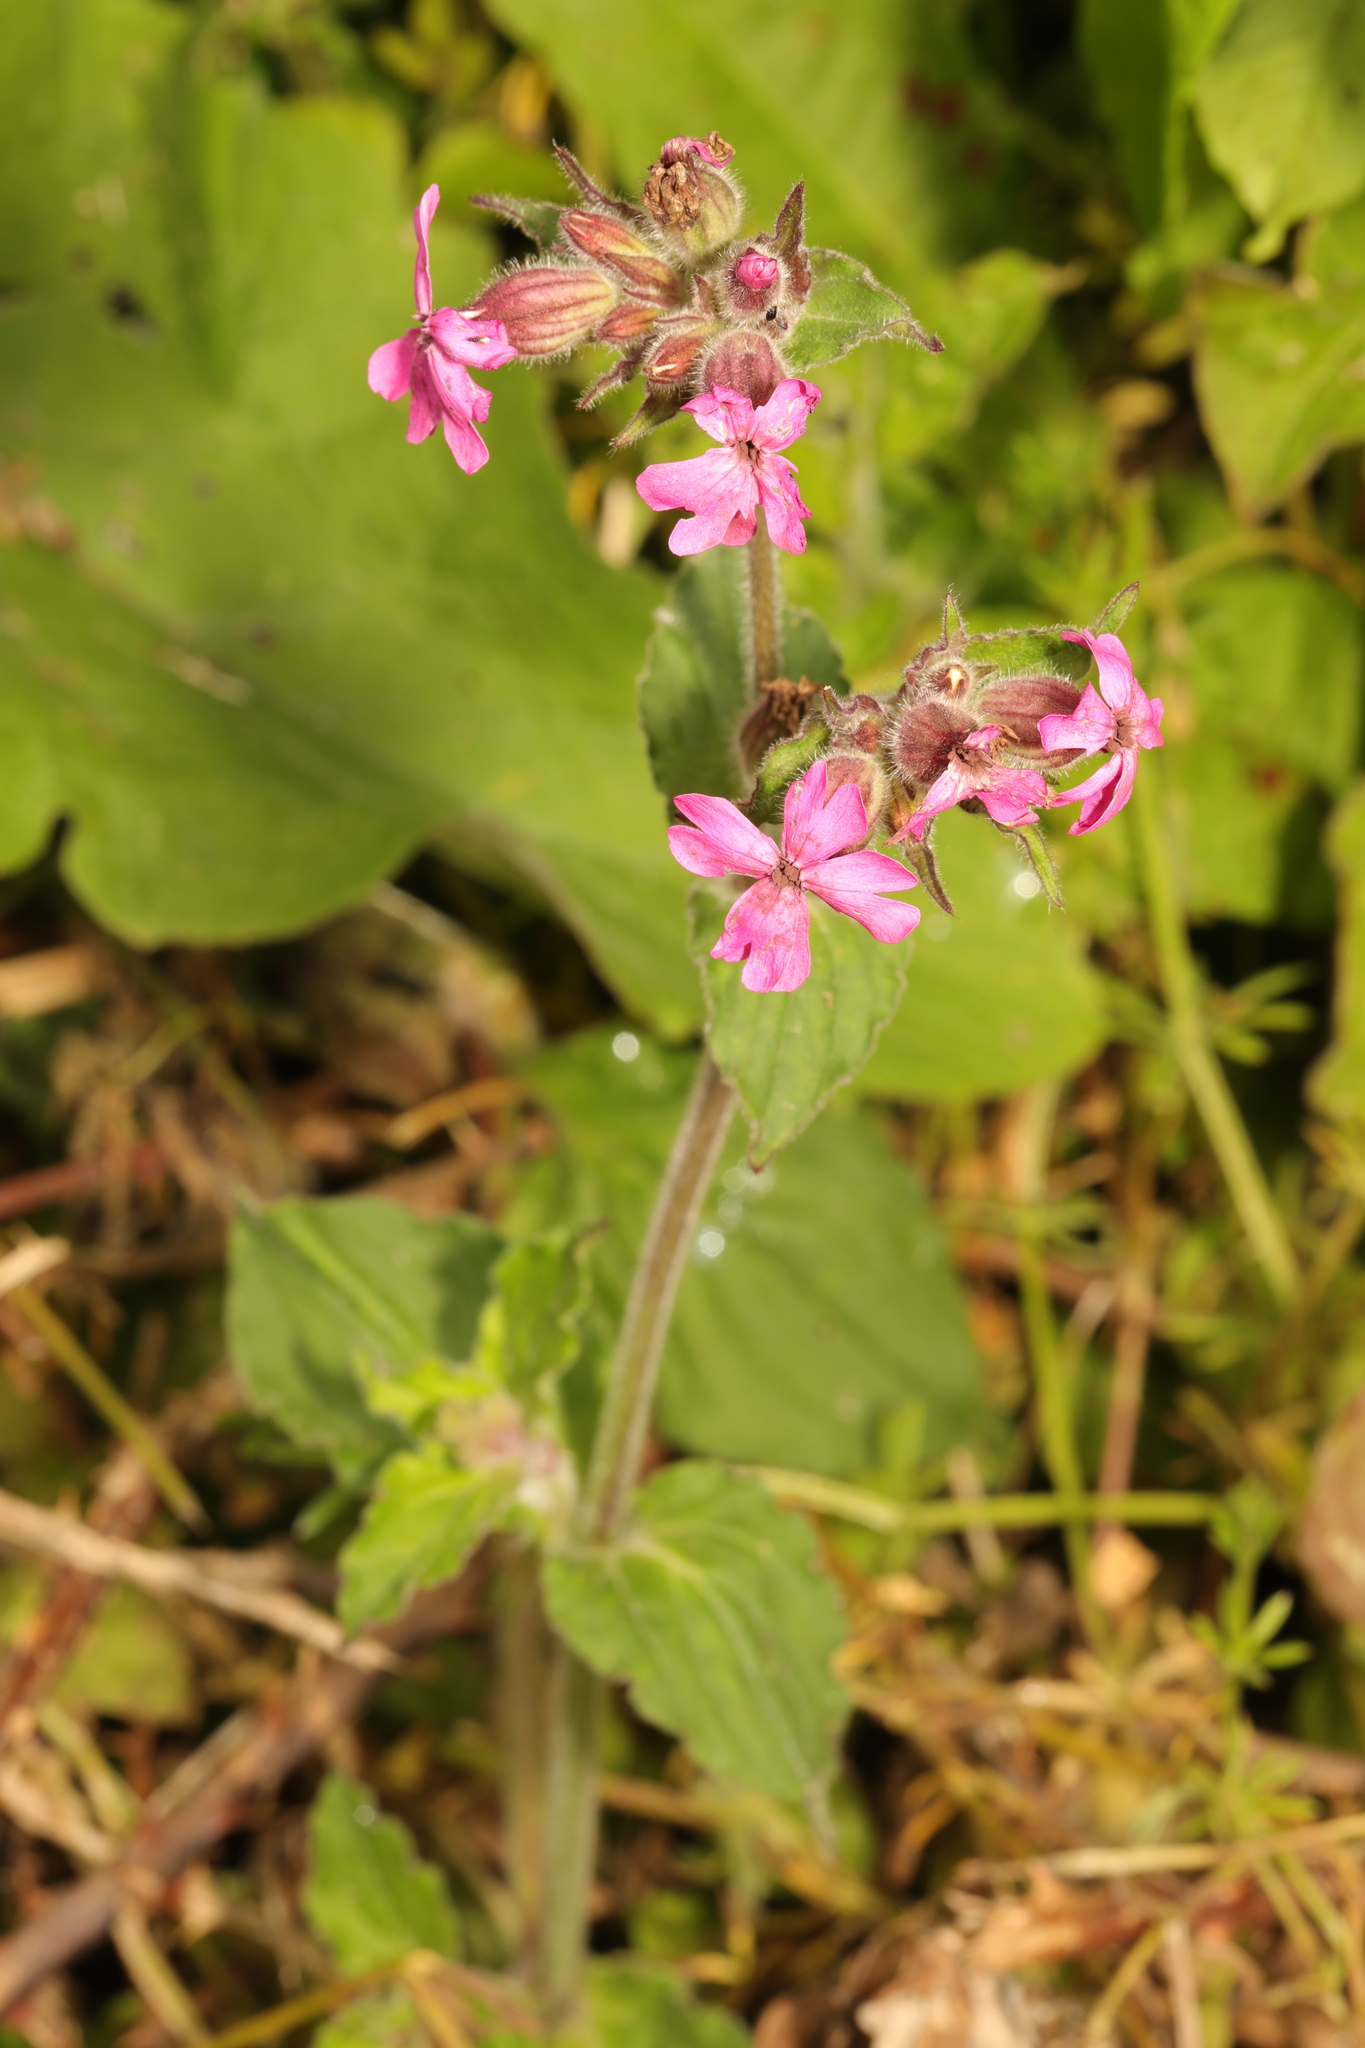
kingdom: Plantae
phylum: Tracheophyta
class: Magnoliopsida
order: Caryophyllales
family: Caryophyllaceae
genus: Silene
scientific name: Silene dioica
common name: Red campion
